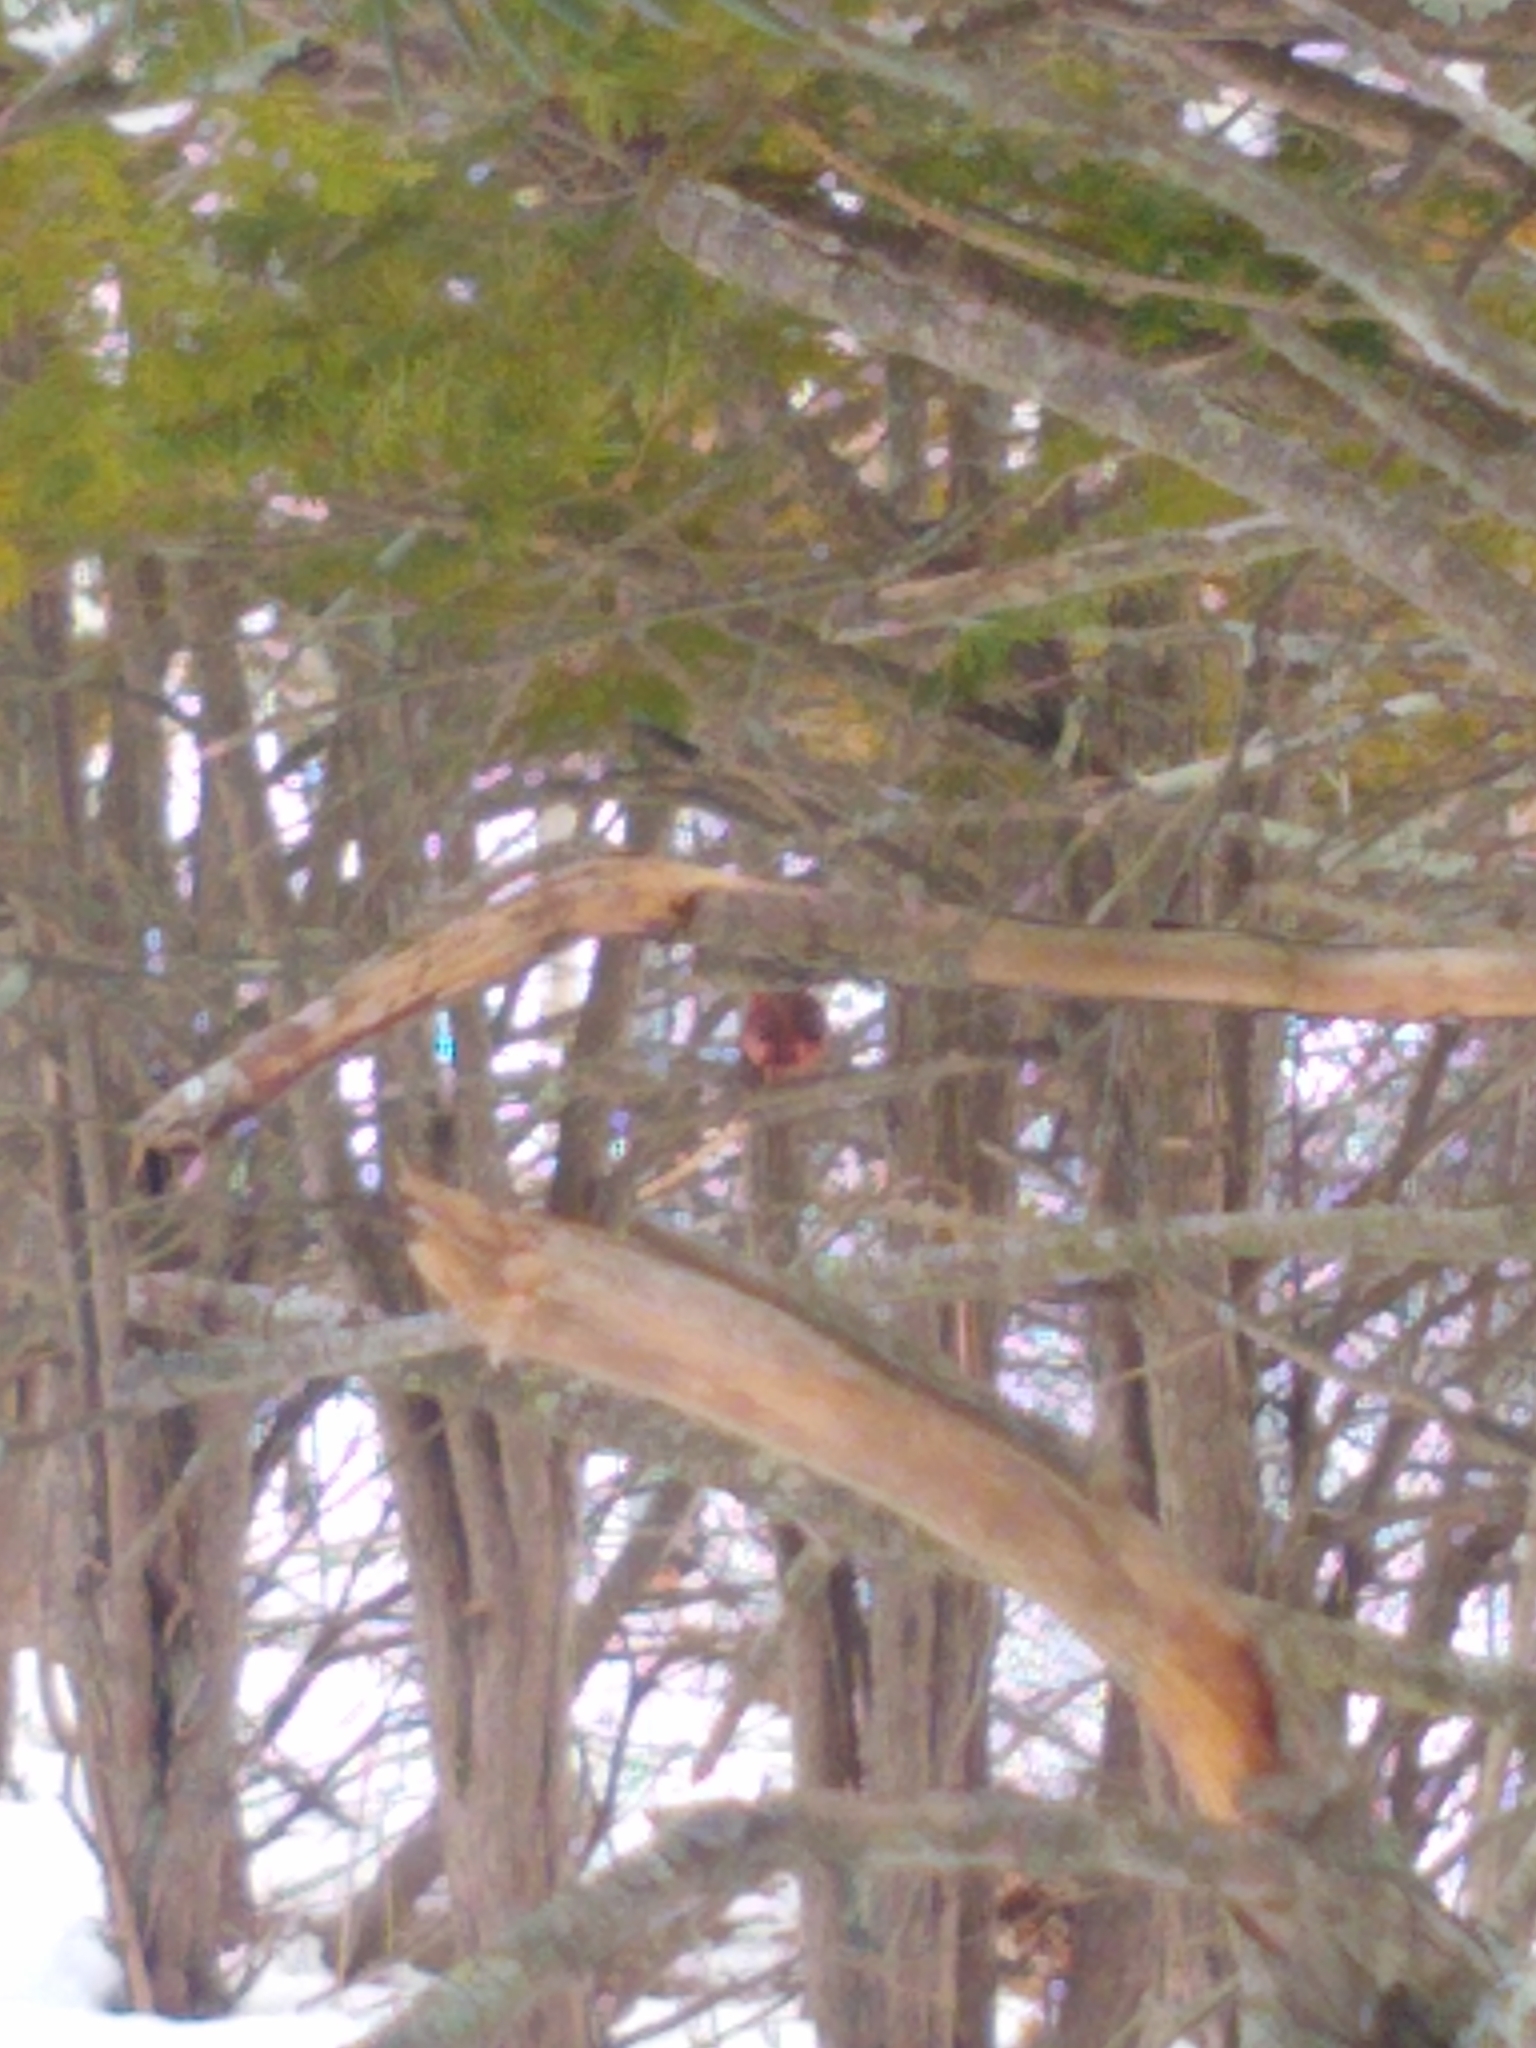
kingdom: Animalia
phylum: Chordata
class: Aves
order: Passeriformes
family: Cardinalidae
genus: Cardinalis
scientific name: Cardinalis cardinalis
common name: Northern cardinal
